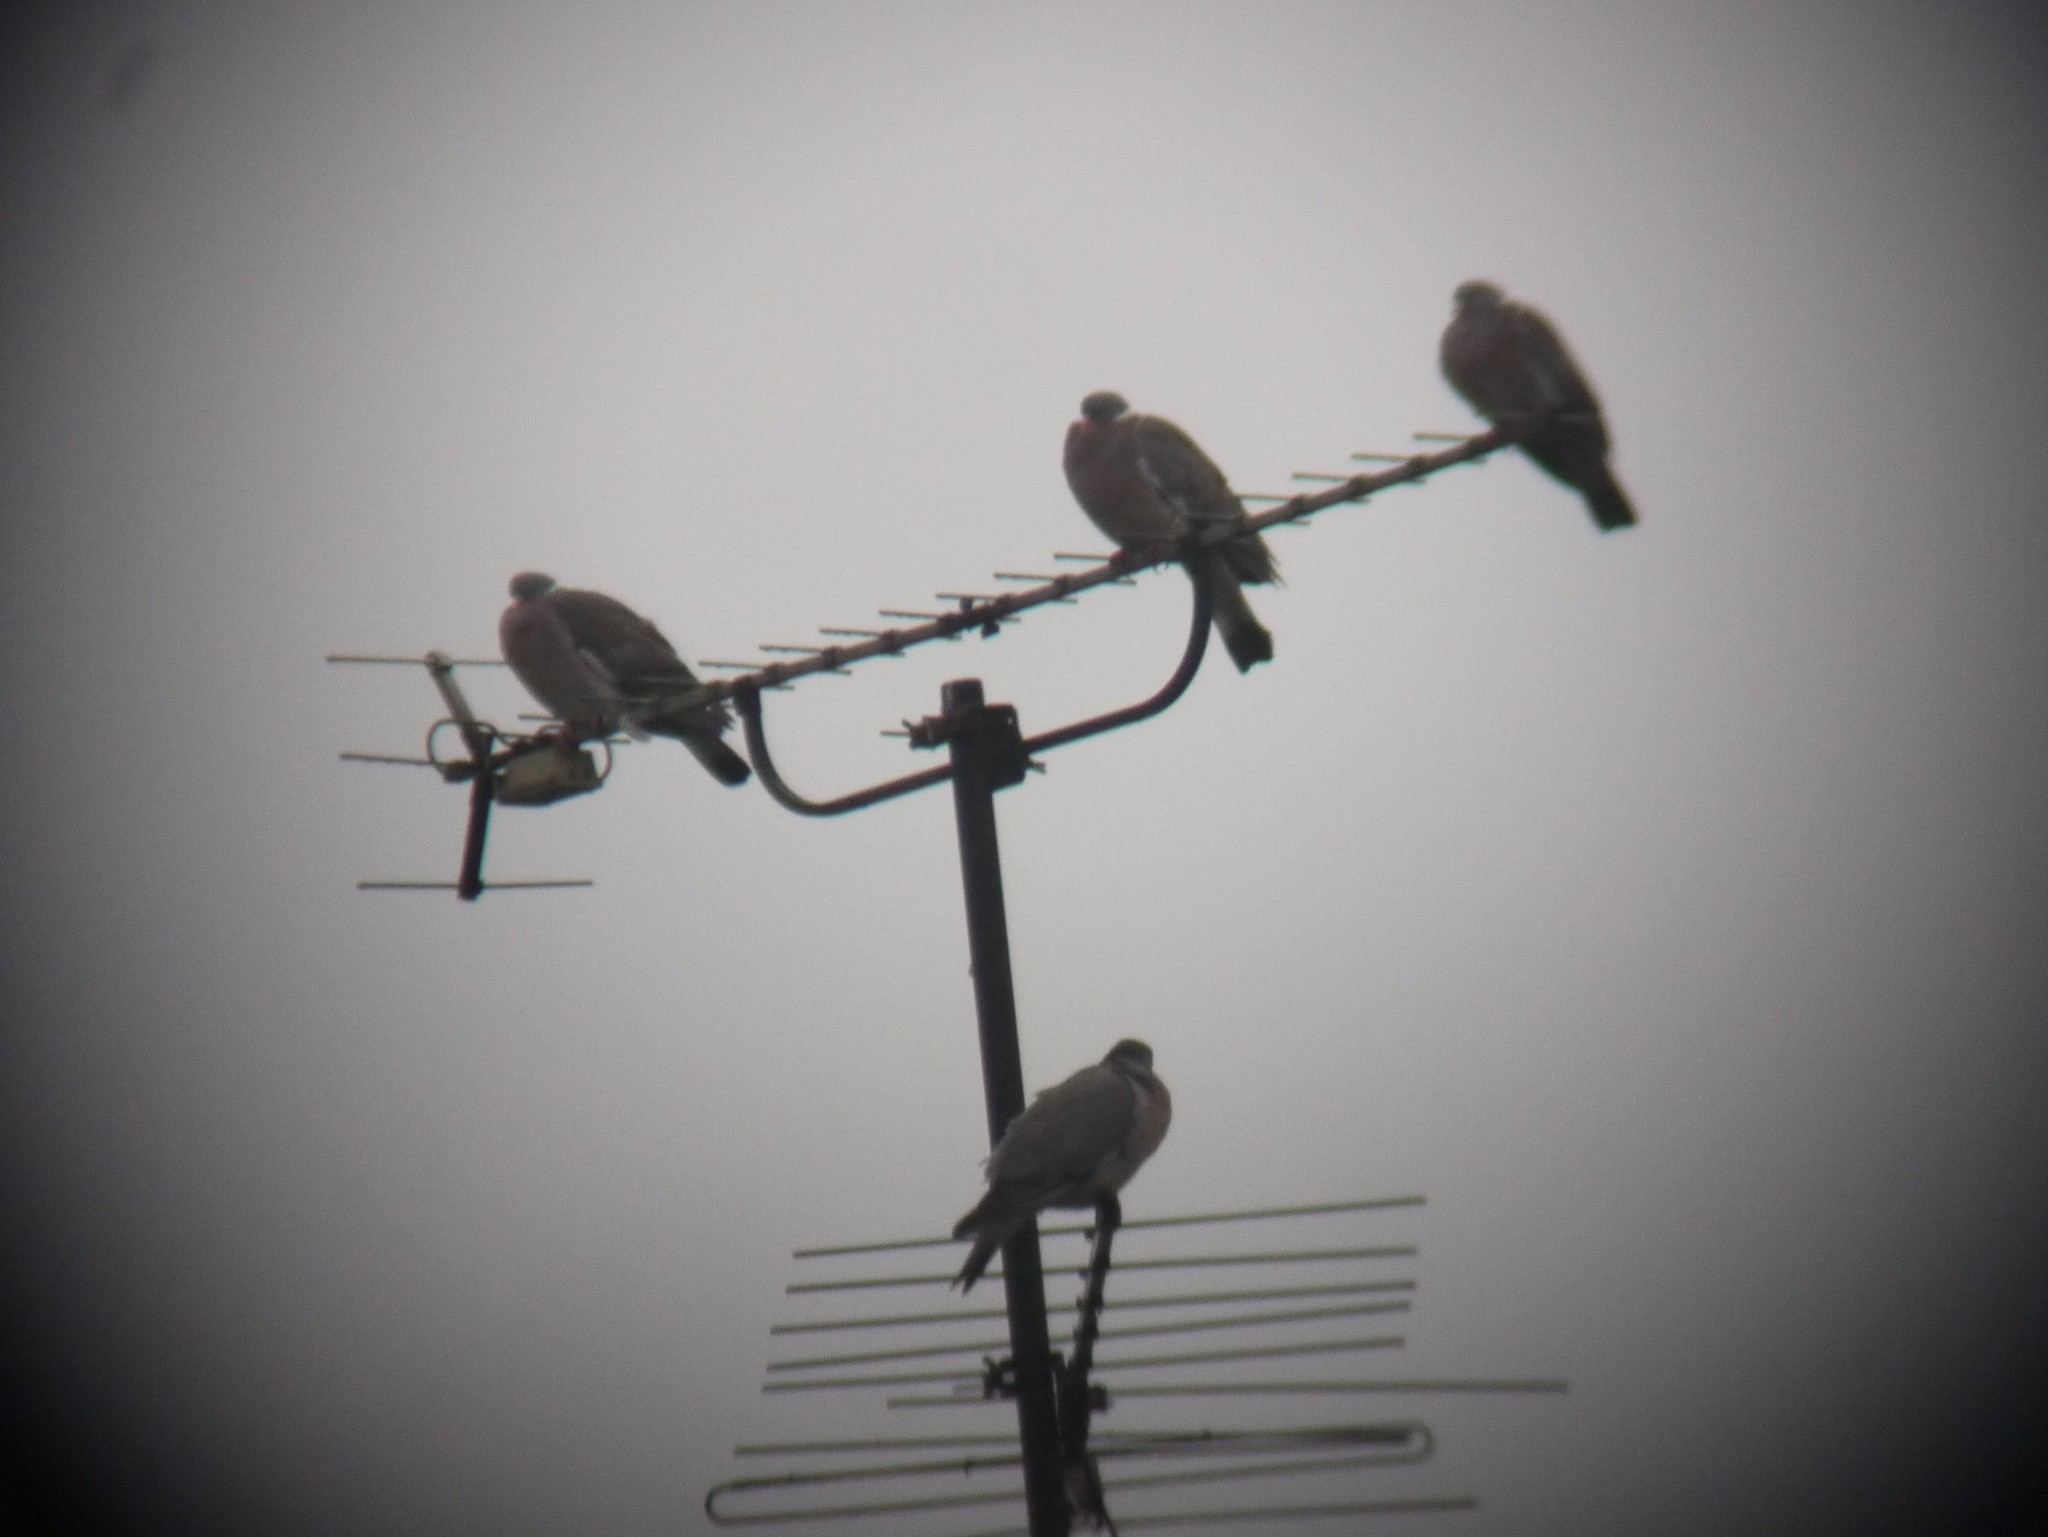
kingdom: Animalia
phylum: Chordata
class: Aves
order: Columbiformes
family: Columbidae
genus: Columba
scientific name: Columba palumbus
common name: Common wood pigeon
